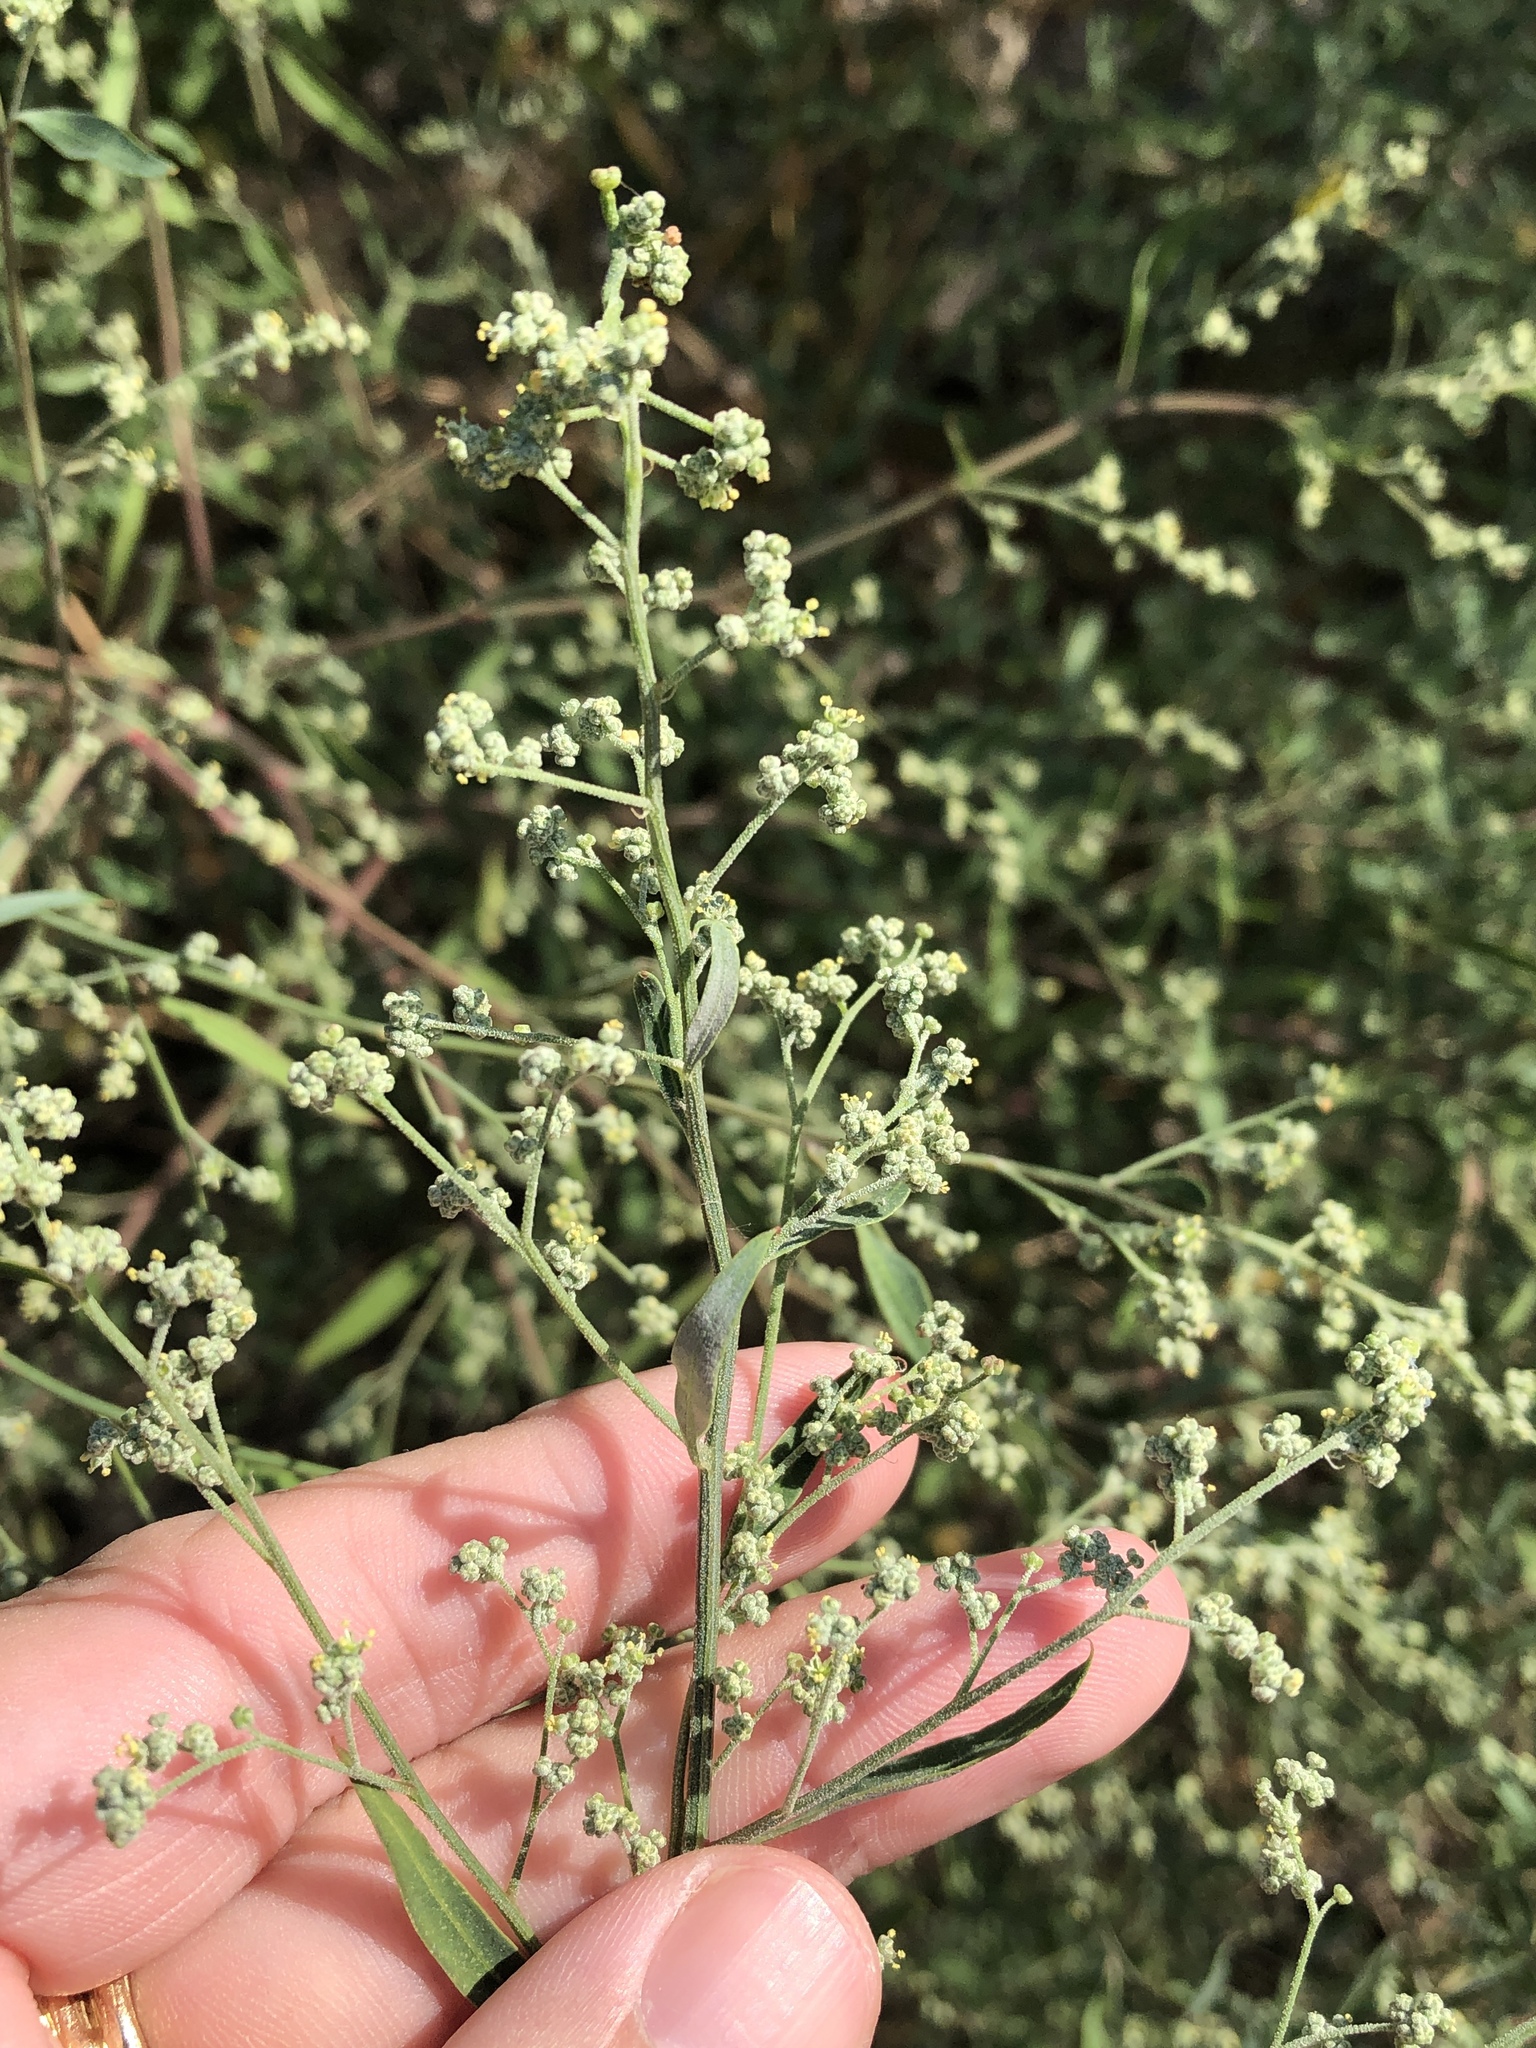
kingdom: Plantae
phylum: Tracheophyta
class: Magnoliopsida
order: Caryophyllales
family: Amaranthaceae
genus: Chenopodium
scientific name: Chenopodium album
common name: Fat-hen
